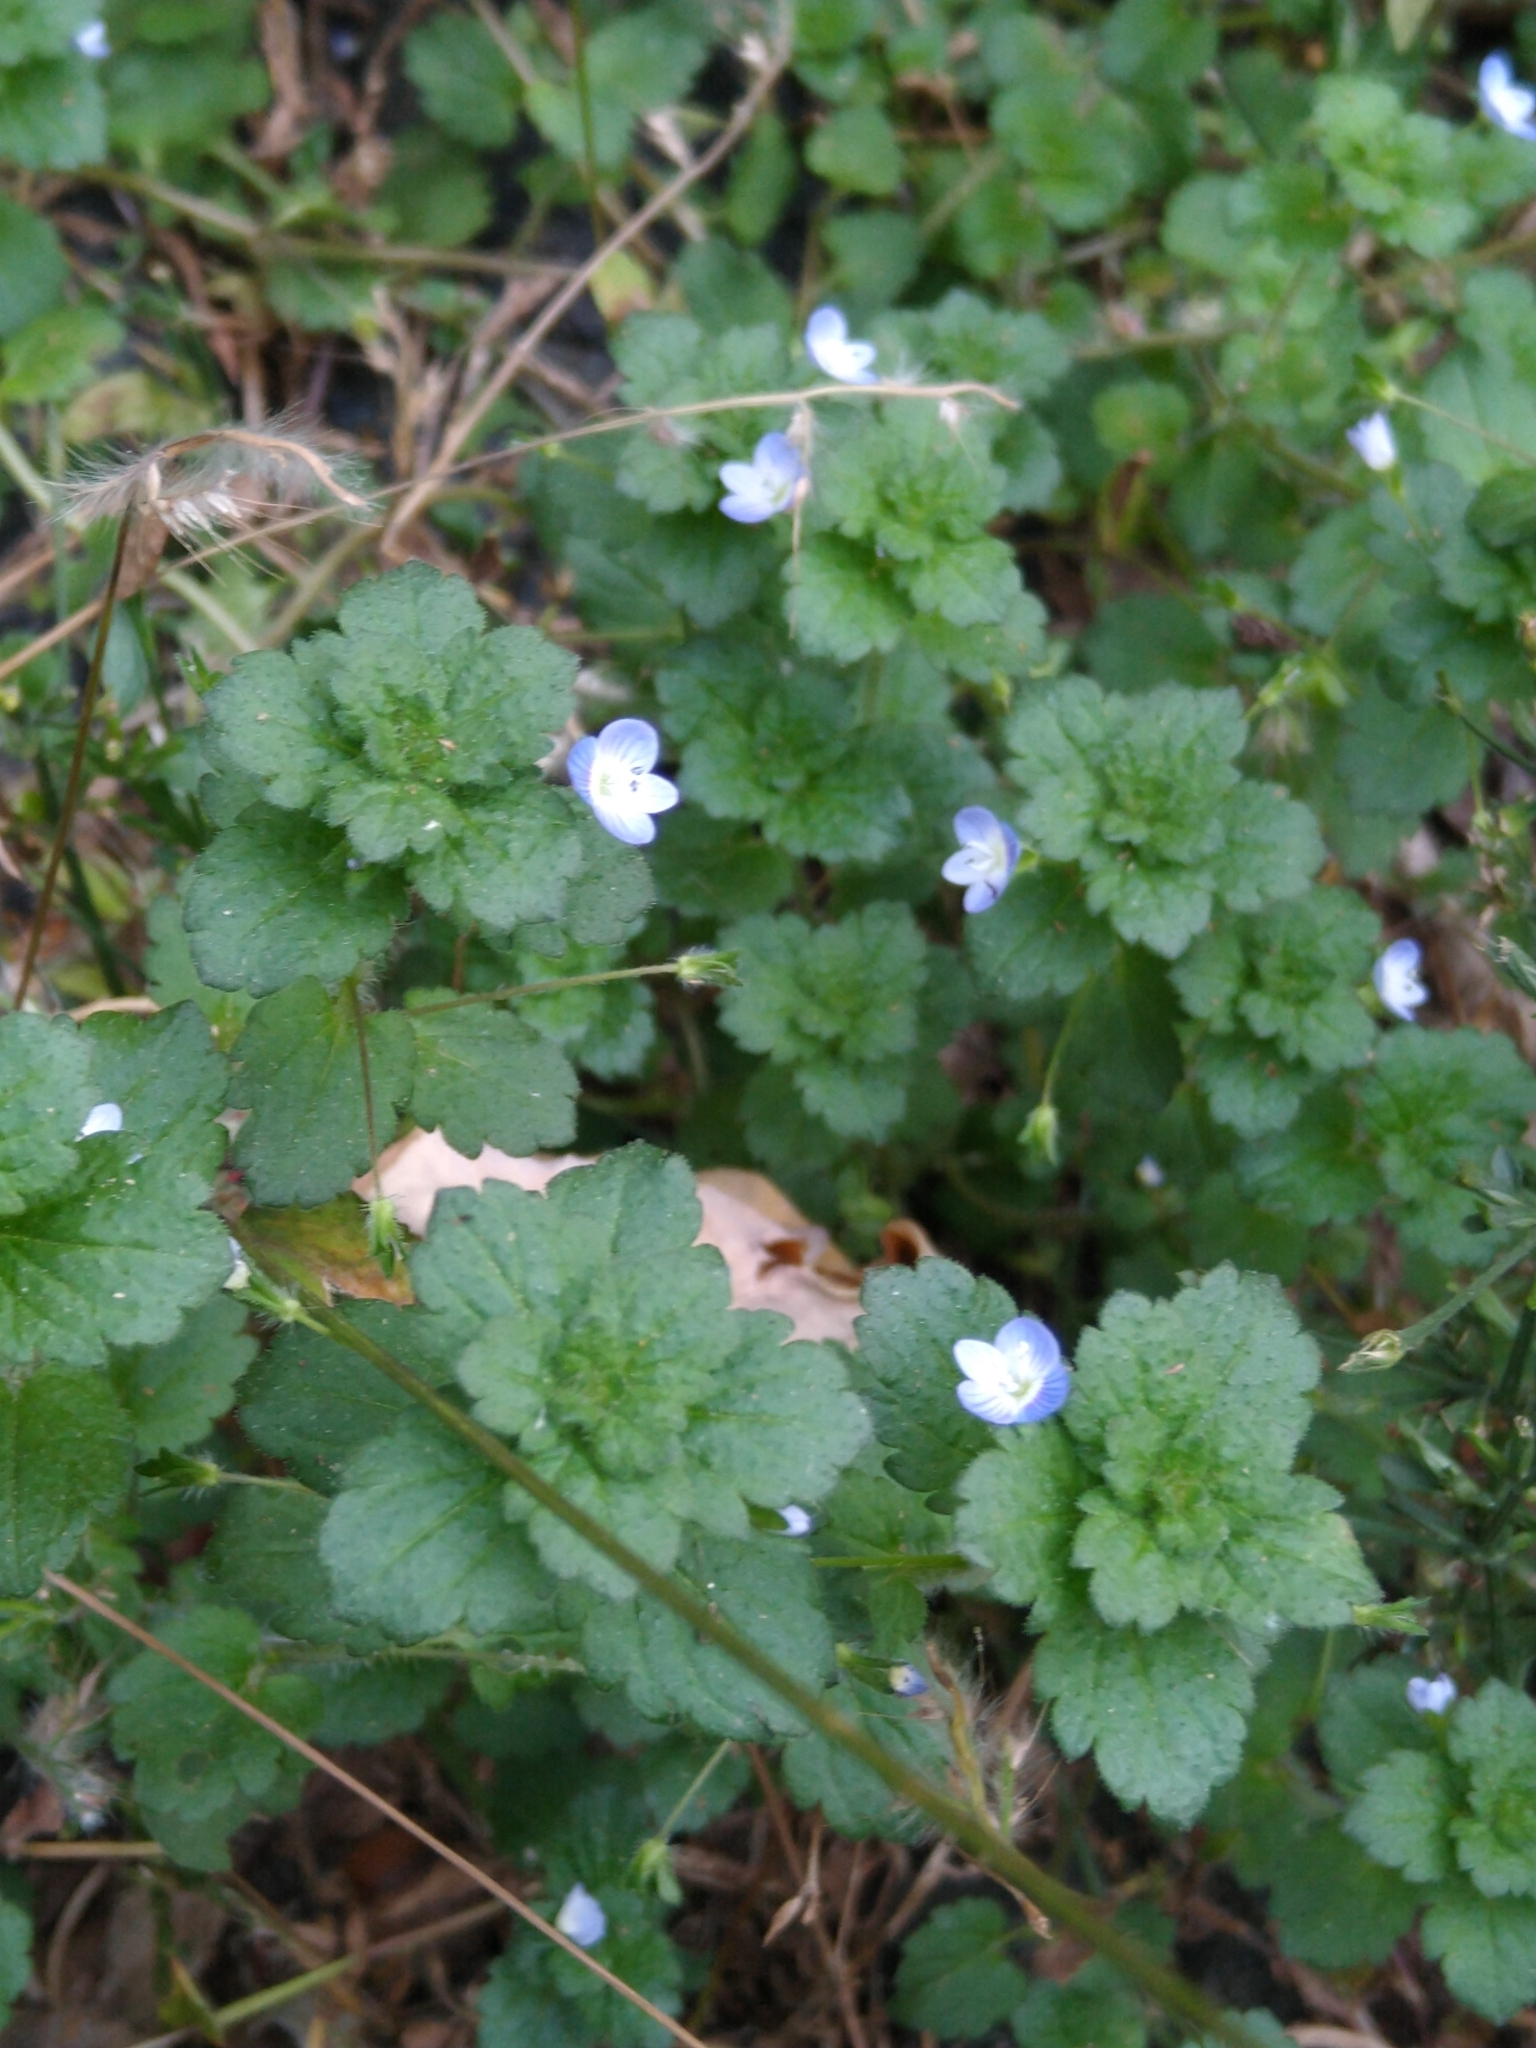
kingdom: Plantae
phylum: Tracheophyta
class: Magnoliopsida
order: Lamiales
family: Plantaginaceae
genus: Veronica
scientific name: Veronica persica
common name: Common field-speedwell
